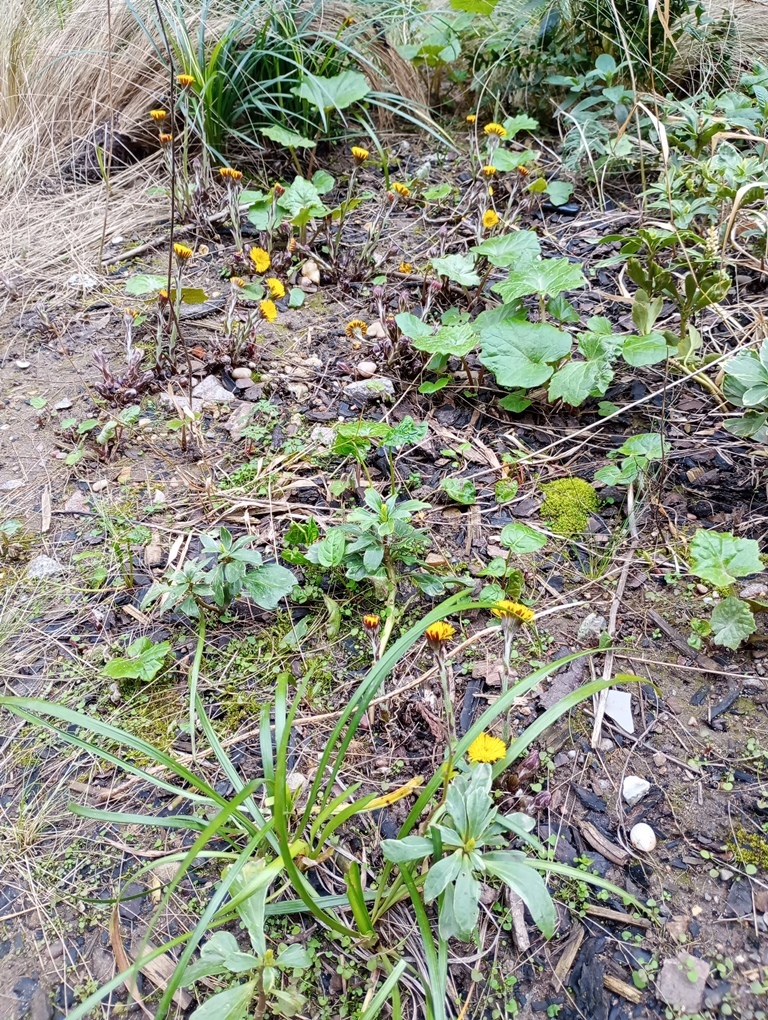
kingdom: Plantae
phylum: Tracheophyta
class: Magnoliopsida
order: Asterales
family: Asteraceae
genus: Tussilago
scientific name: Tussilago farfara
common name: Coltsfoot
